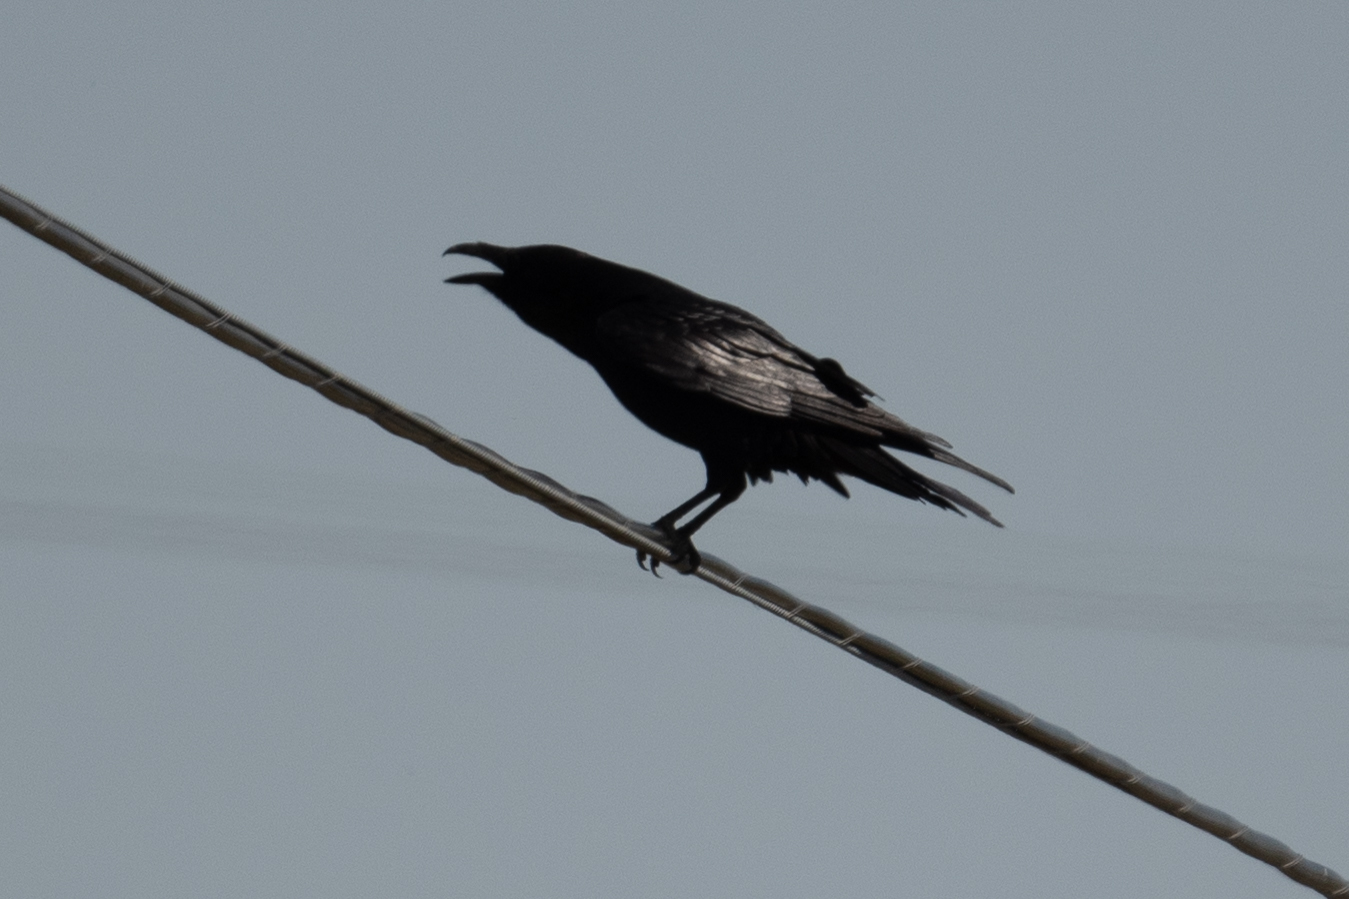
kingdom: Animalia
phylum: Chordata
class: Aves
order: Passeriformes
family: Corvidae
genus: Corvus
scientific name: Corvus corax
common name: Common raven
